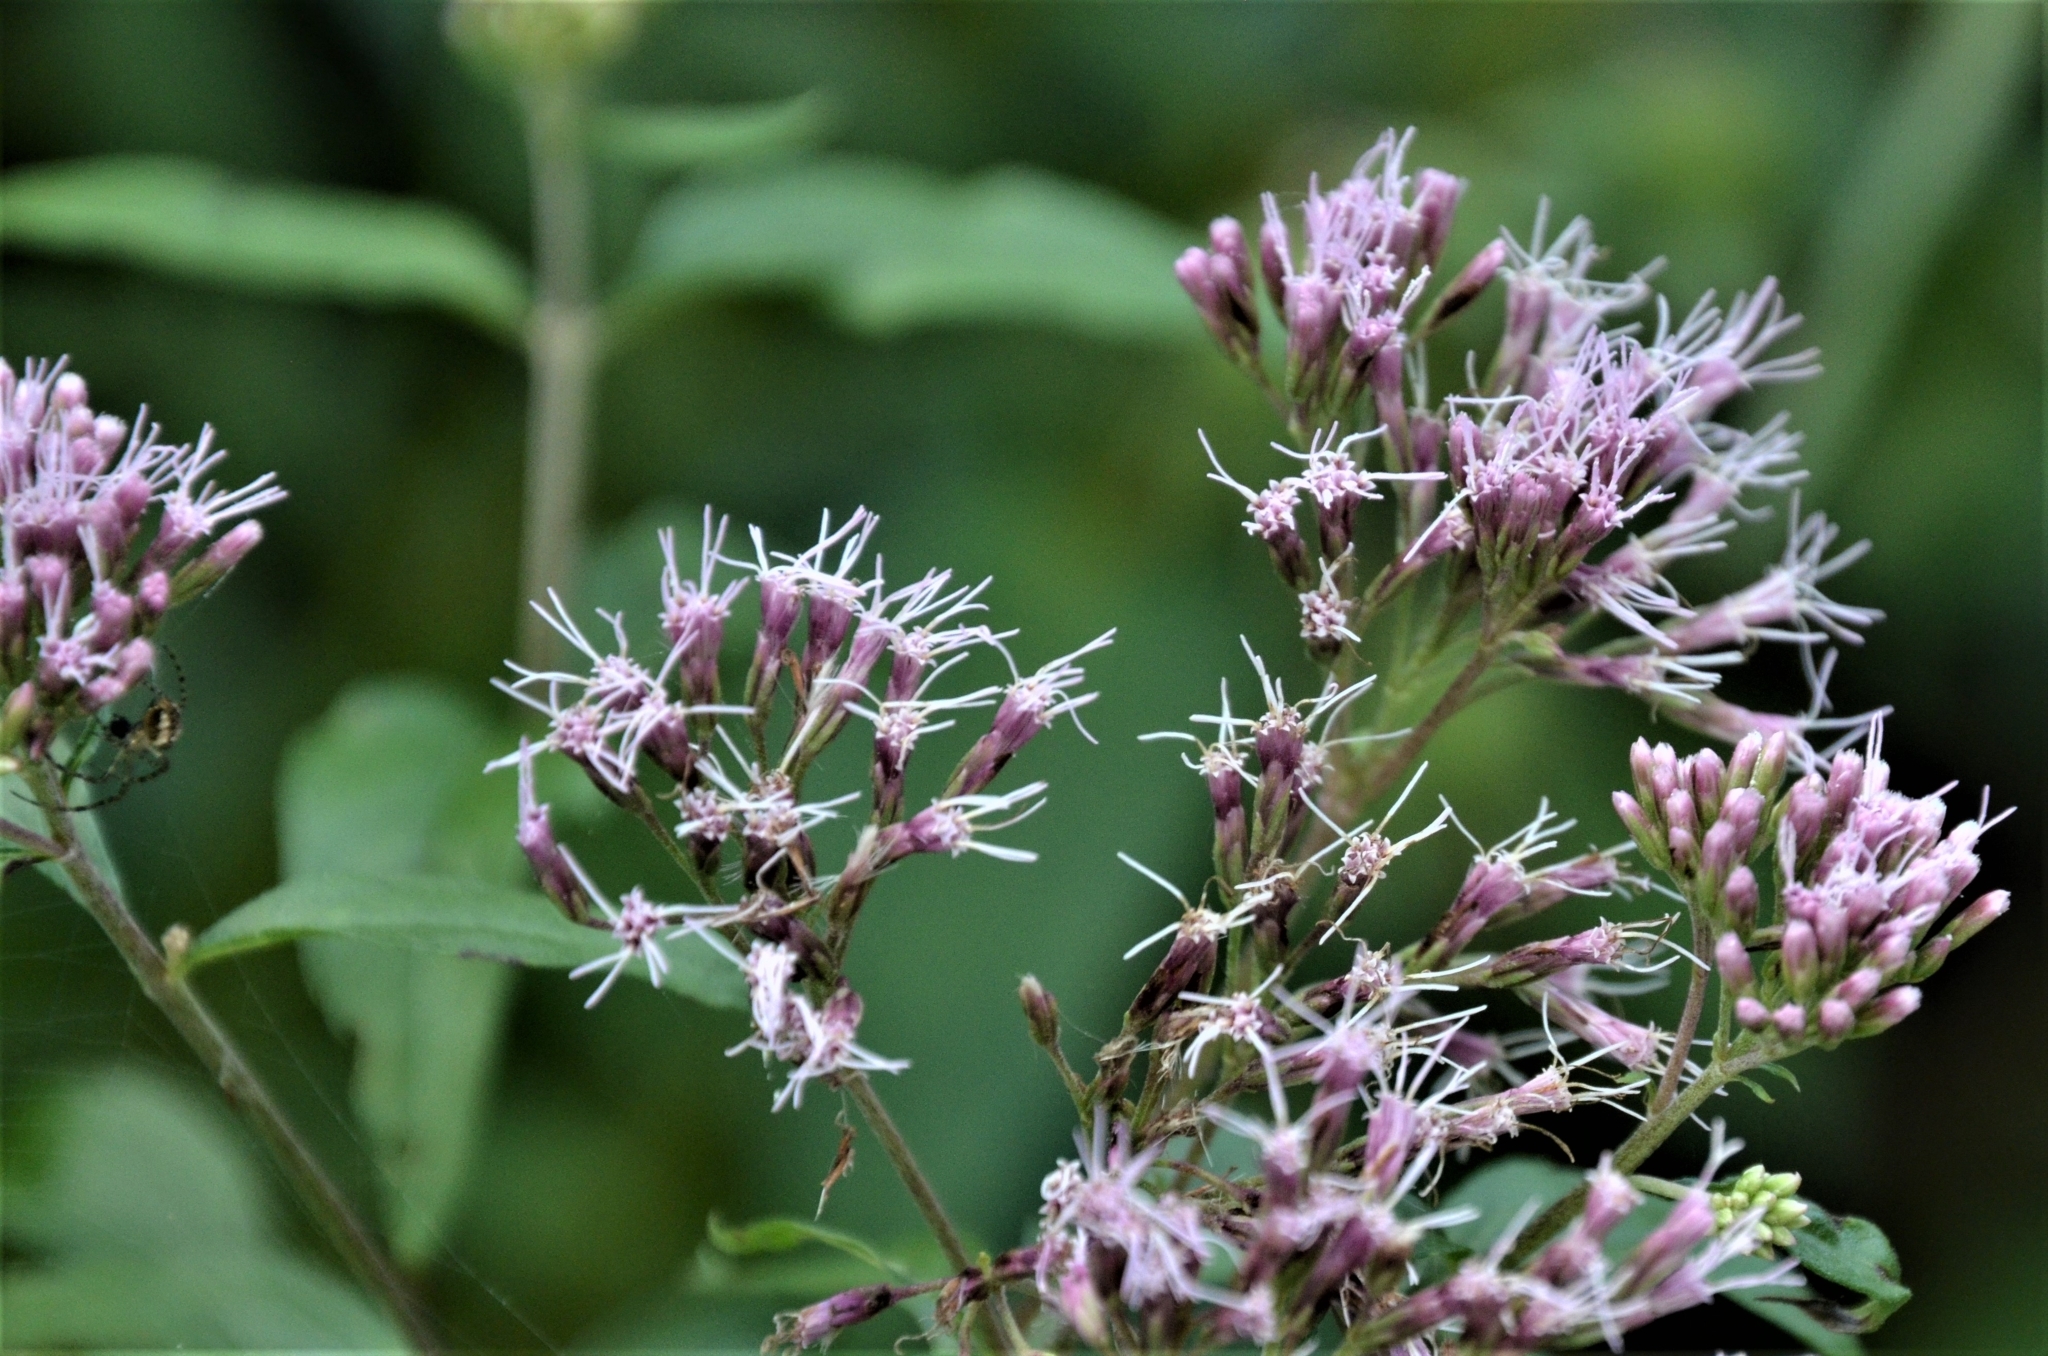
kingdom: Plantae
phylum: Tracheophyta
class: Magnoliopsida
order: Asterales
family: Asteraceae
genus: Eupatorium
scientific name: Eupatorium cannabinum
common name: Hemp-agrimony
